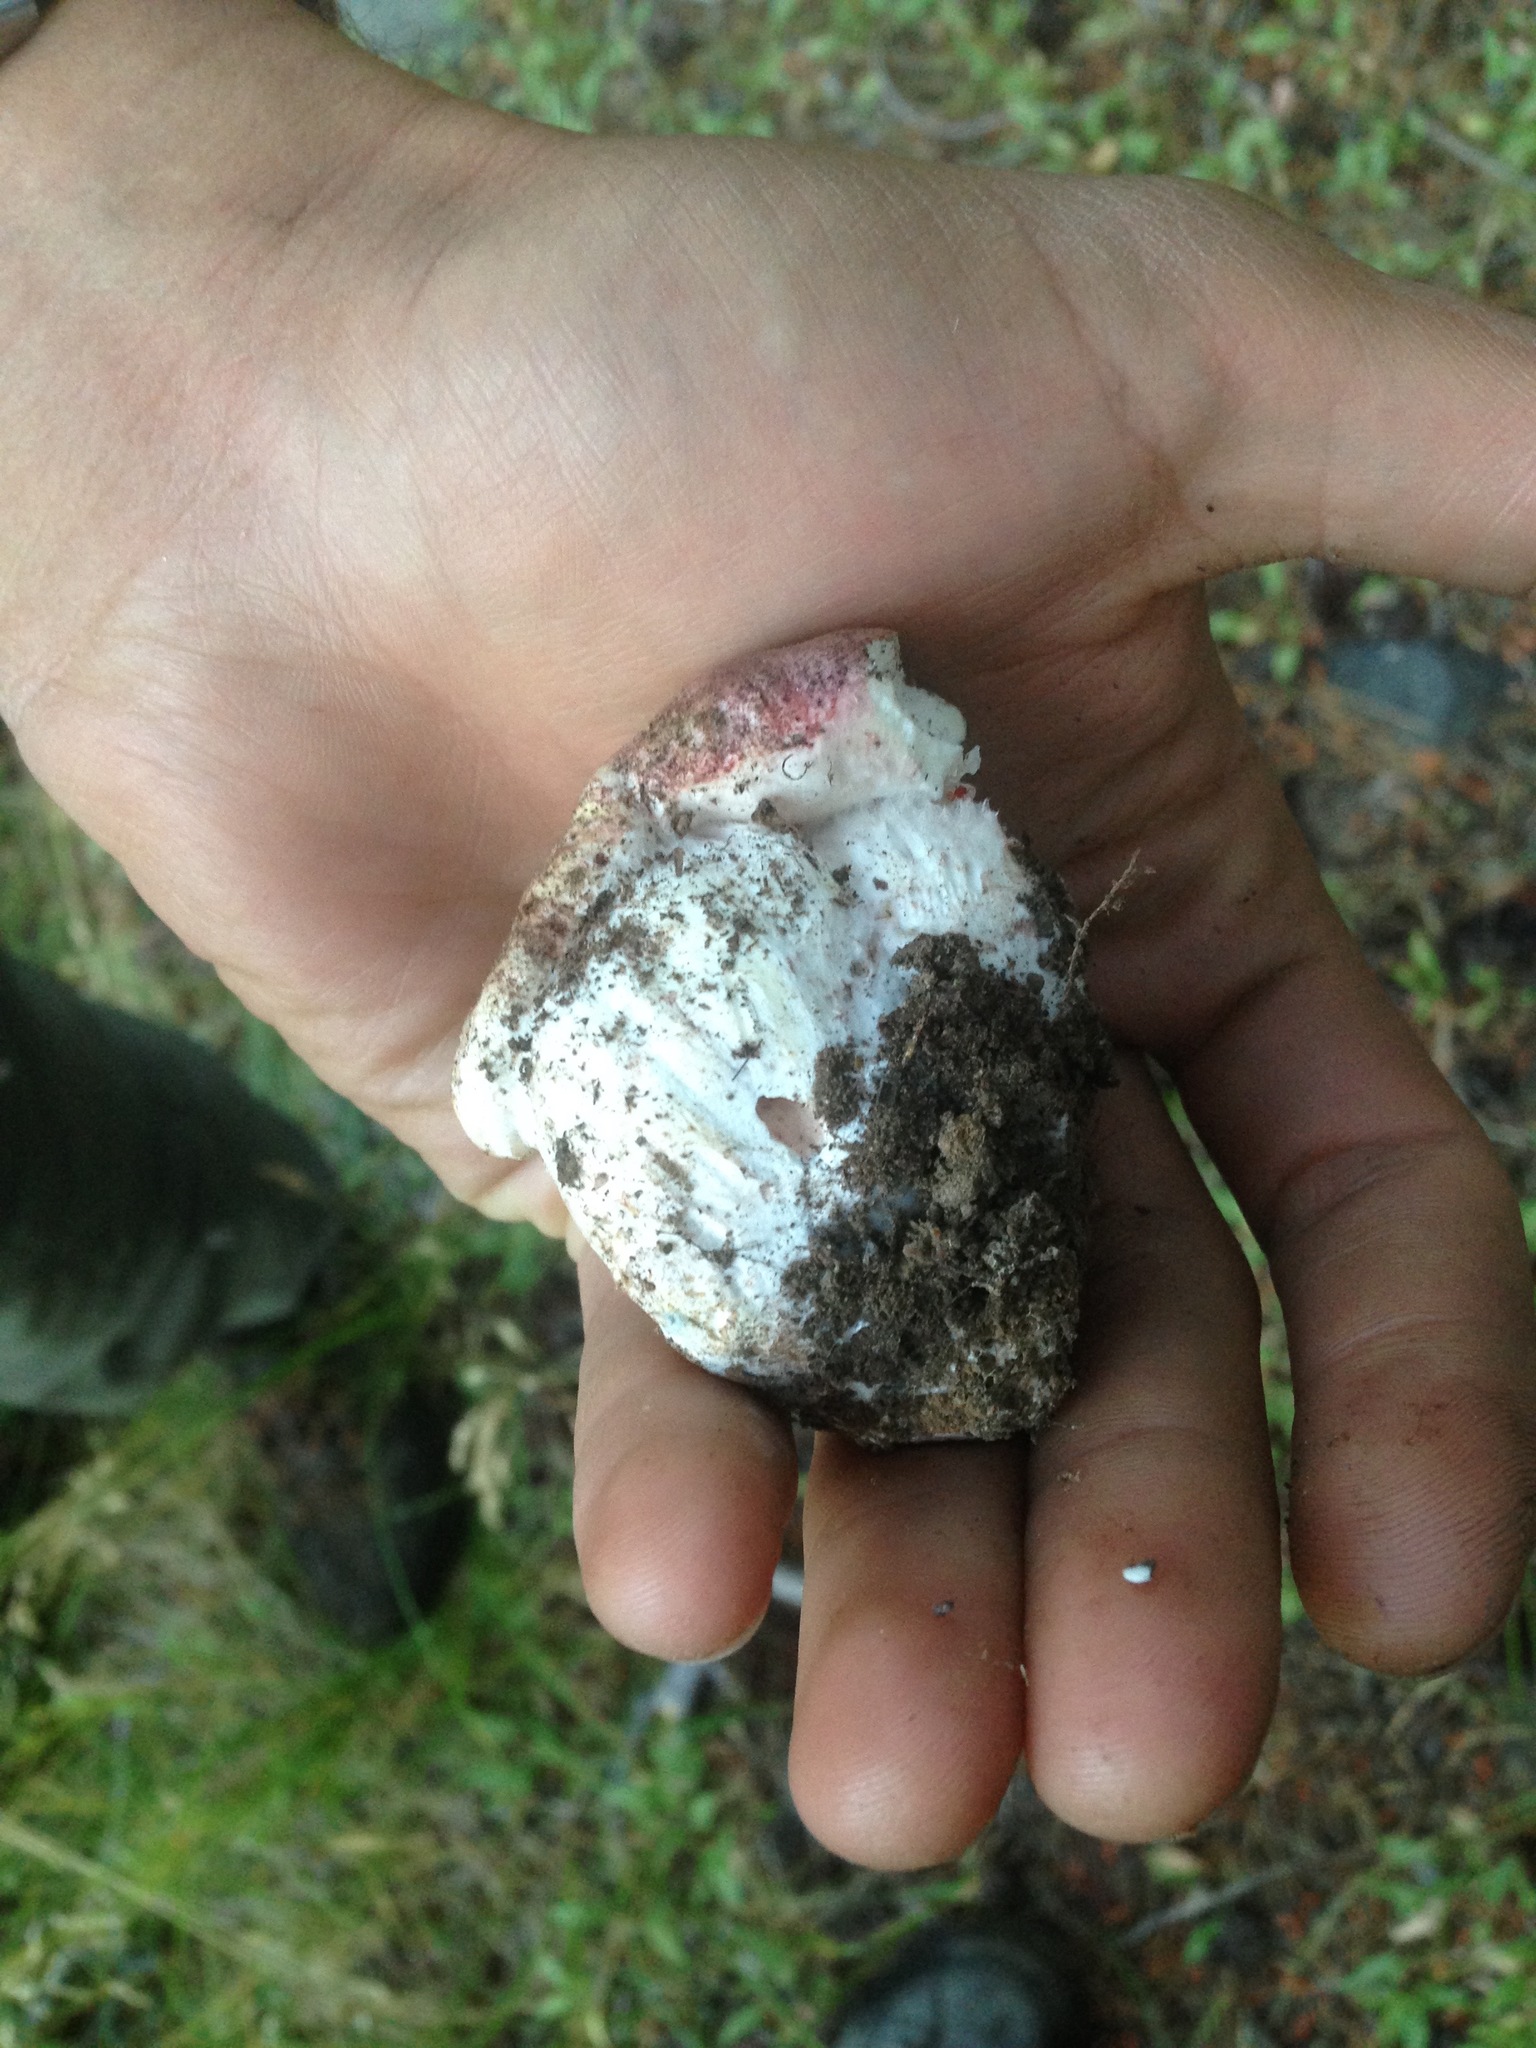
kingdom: Fungi
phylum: Basidiomycota
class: Agaricomycetes
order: Agaricales
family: Hygrophoraceae
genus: Hygrophorus
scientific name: Hygrophorus purpurascens
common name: Veiled purple waxcap
